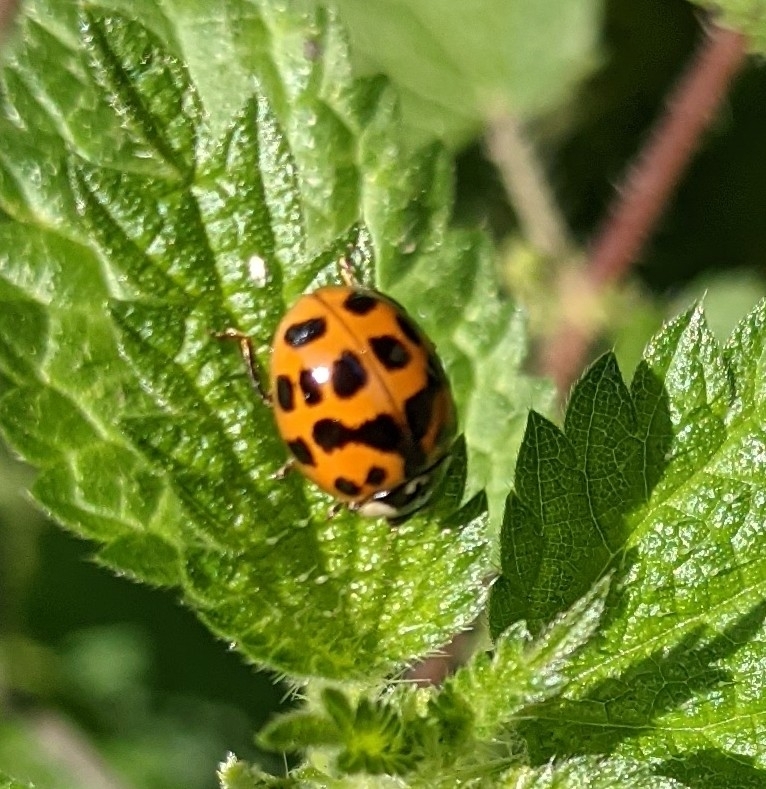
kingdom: Animalia
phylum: Arthropoda
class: Insecta
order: Coleoptera
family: Coccinellidae
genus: Harmonia
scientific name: Harmonia axyridis
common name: Harlequin ladybird
